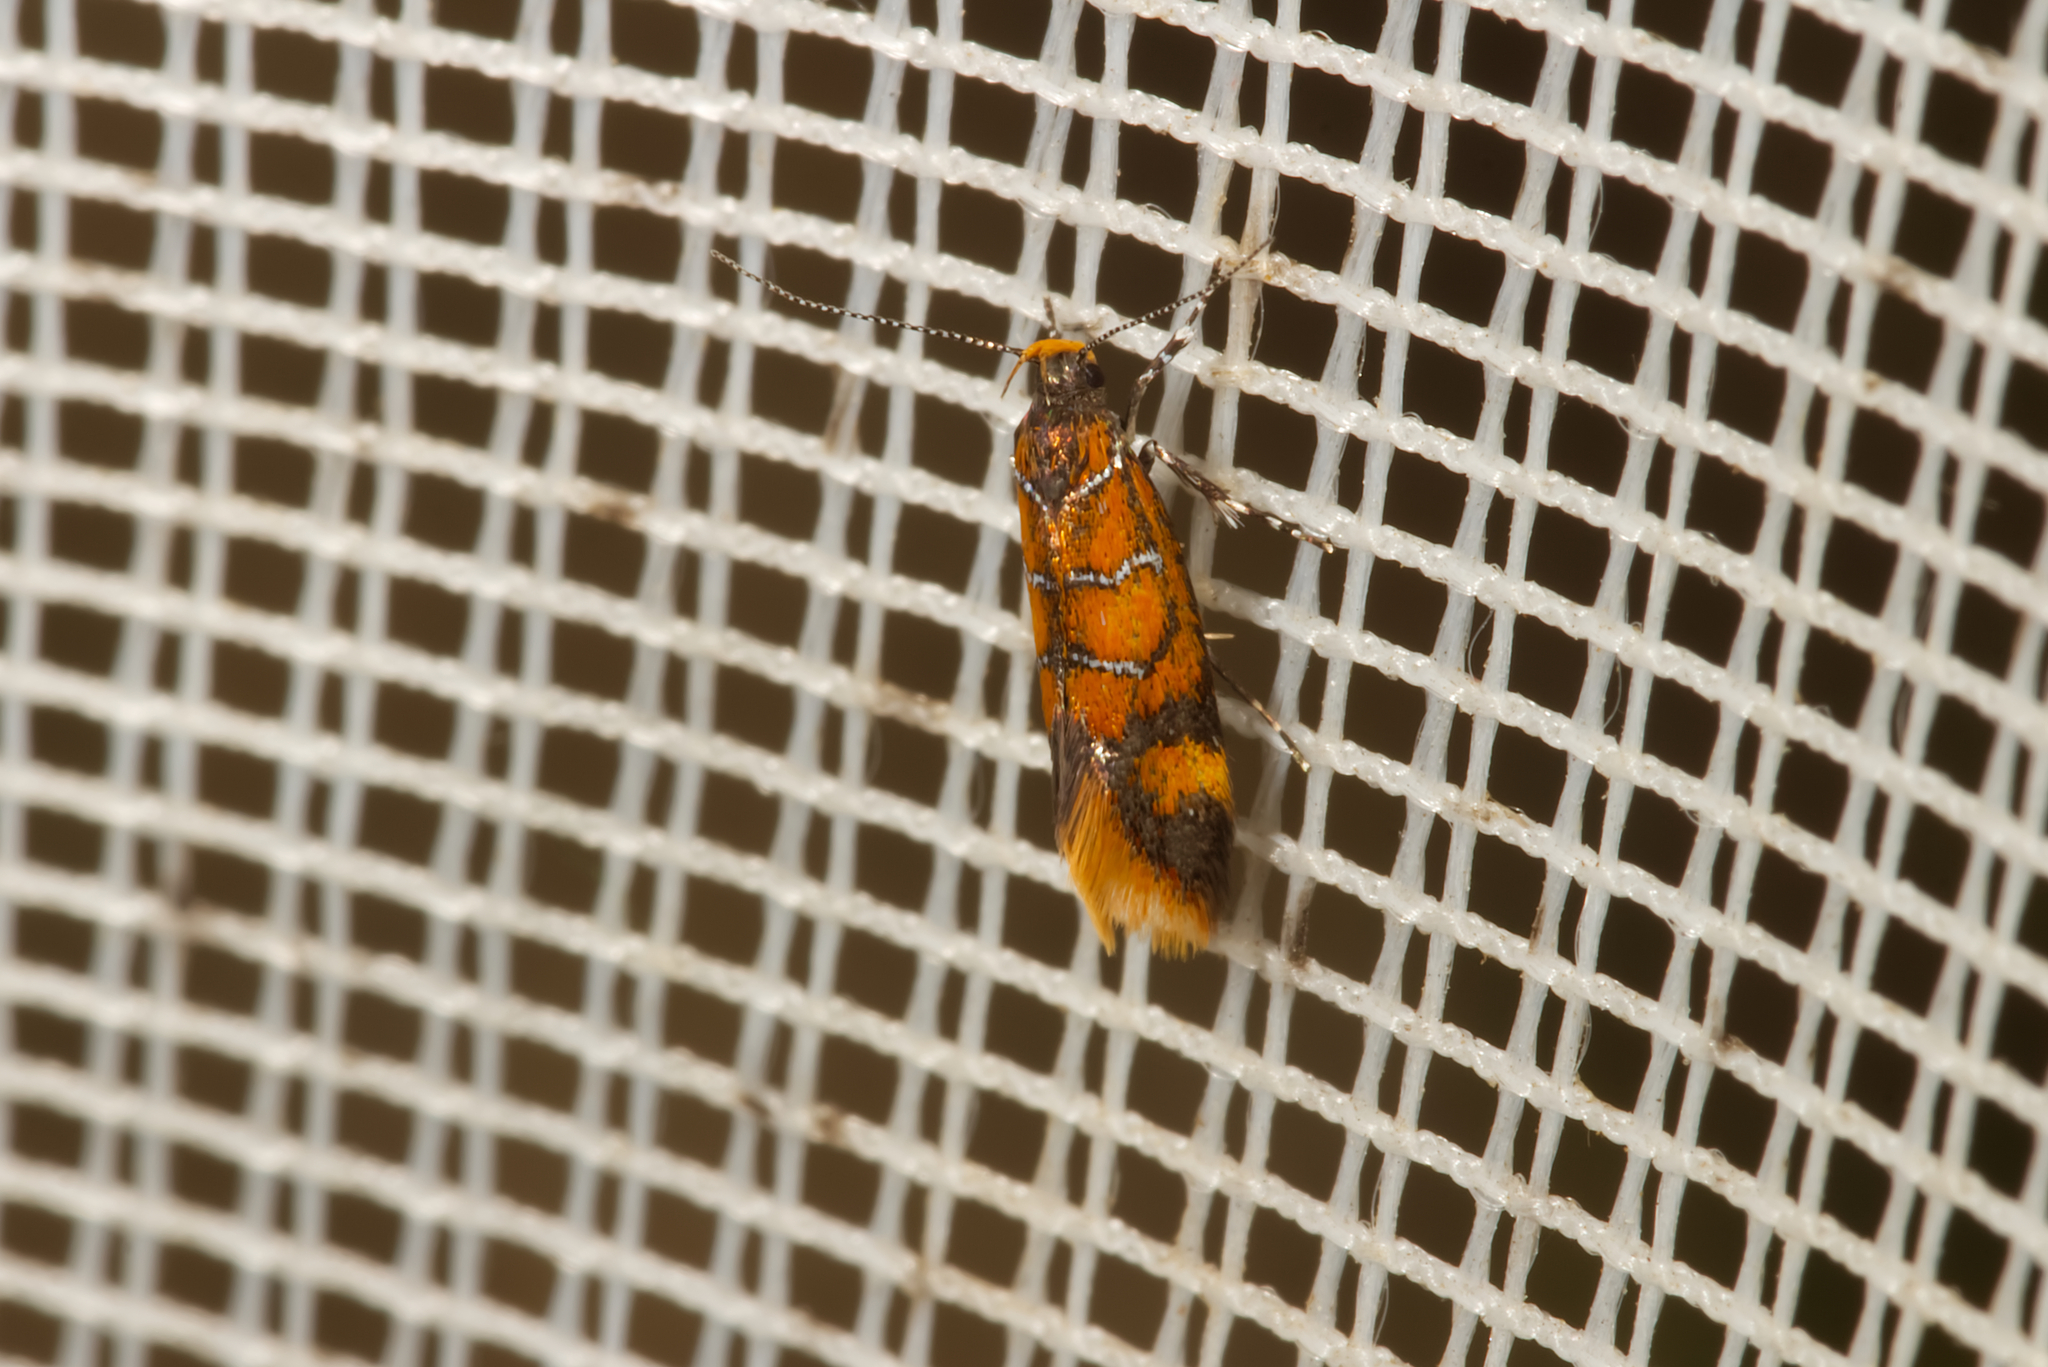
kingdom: Animalia
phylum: Arthropoda
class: Insecta
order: Lepidoptera
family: Oecophoridae
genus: Schiffermuelleria
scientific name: Schiffermuelleria procerella
